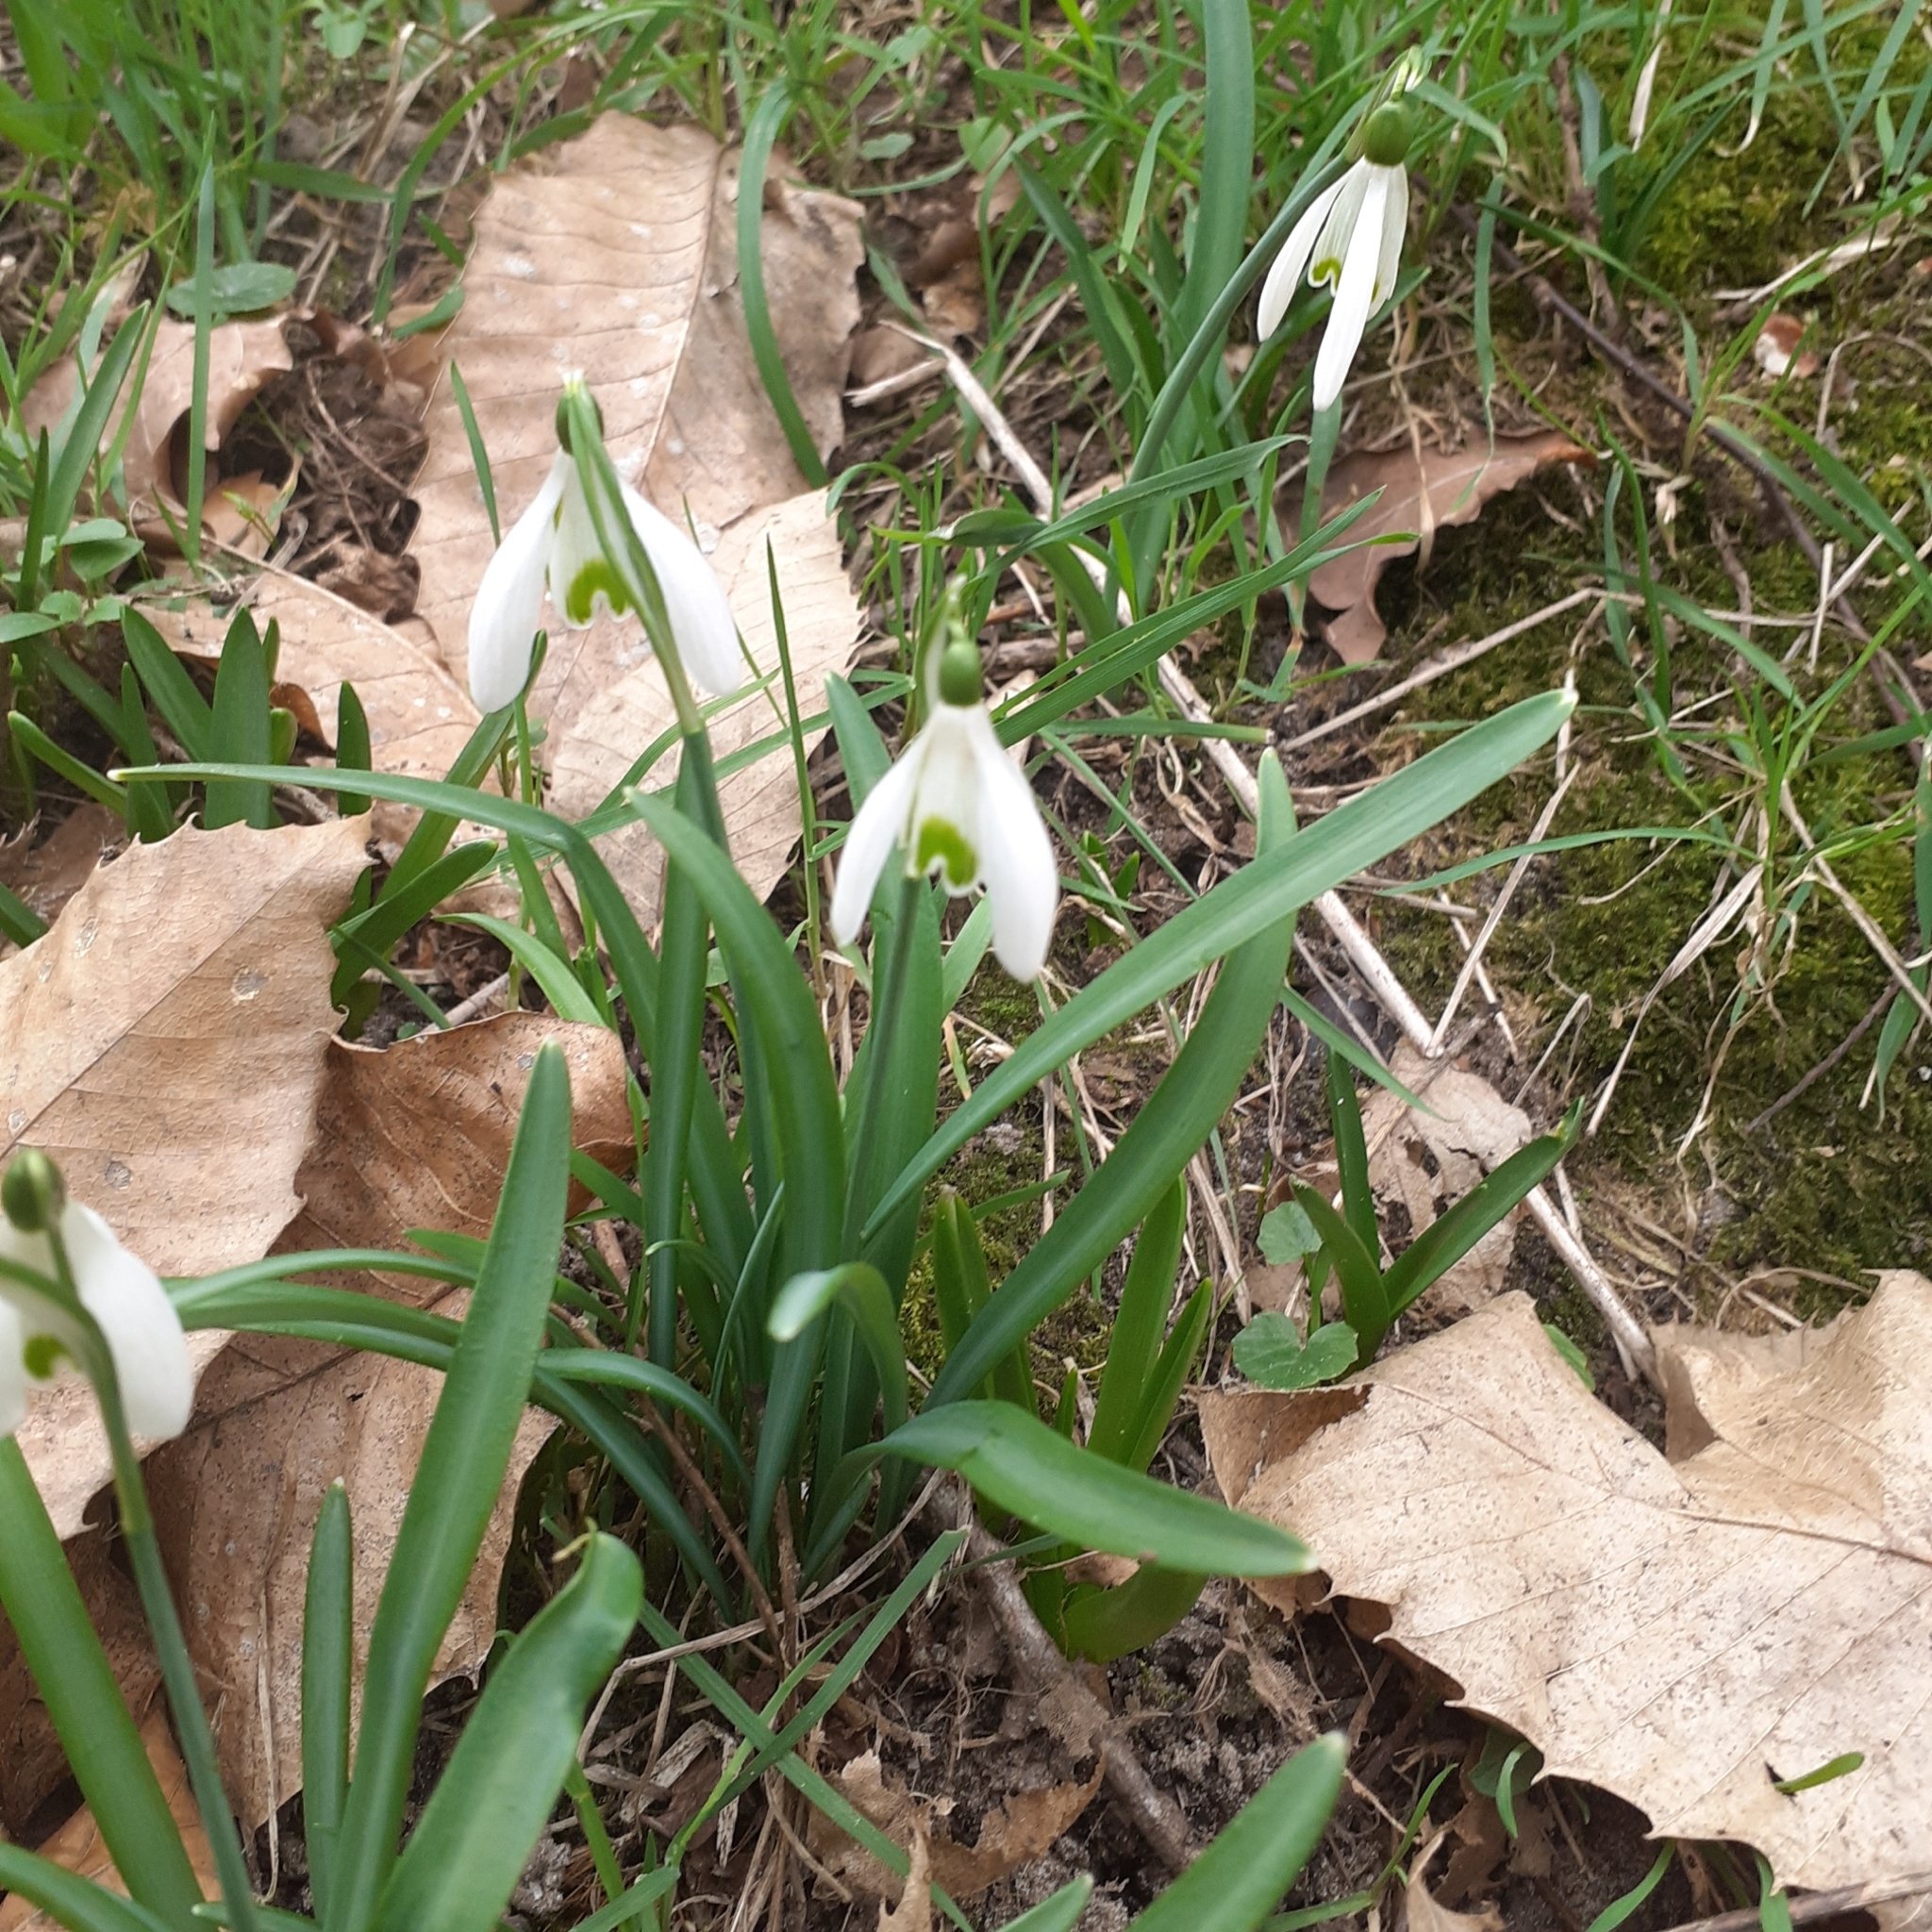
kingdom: Plantae
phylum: Tracheophyta
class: Liliopsida
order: Asparagales
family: Amaryllidaceae
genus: Galanthus
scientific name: Galanthus nivalis
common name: Snowdrop
